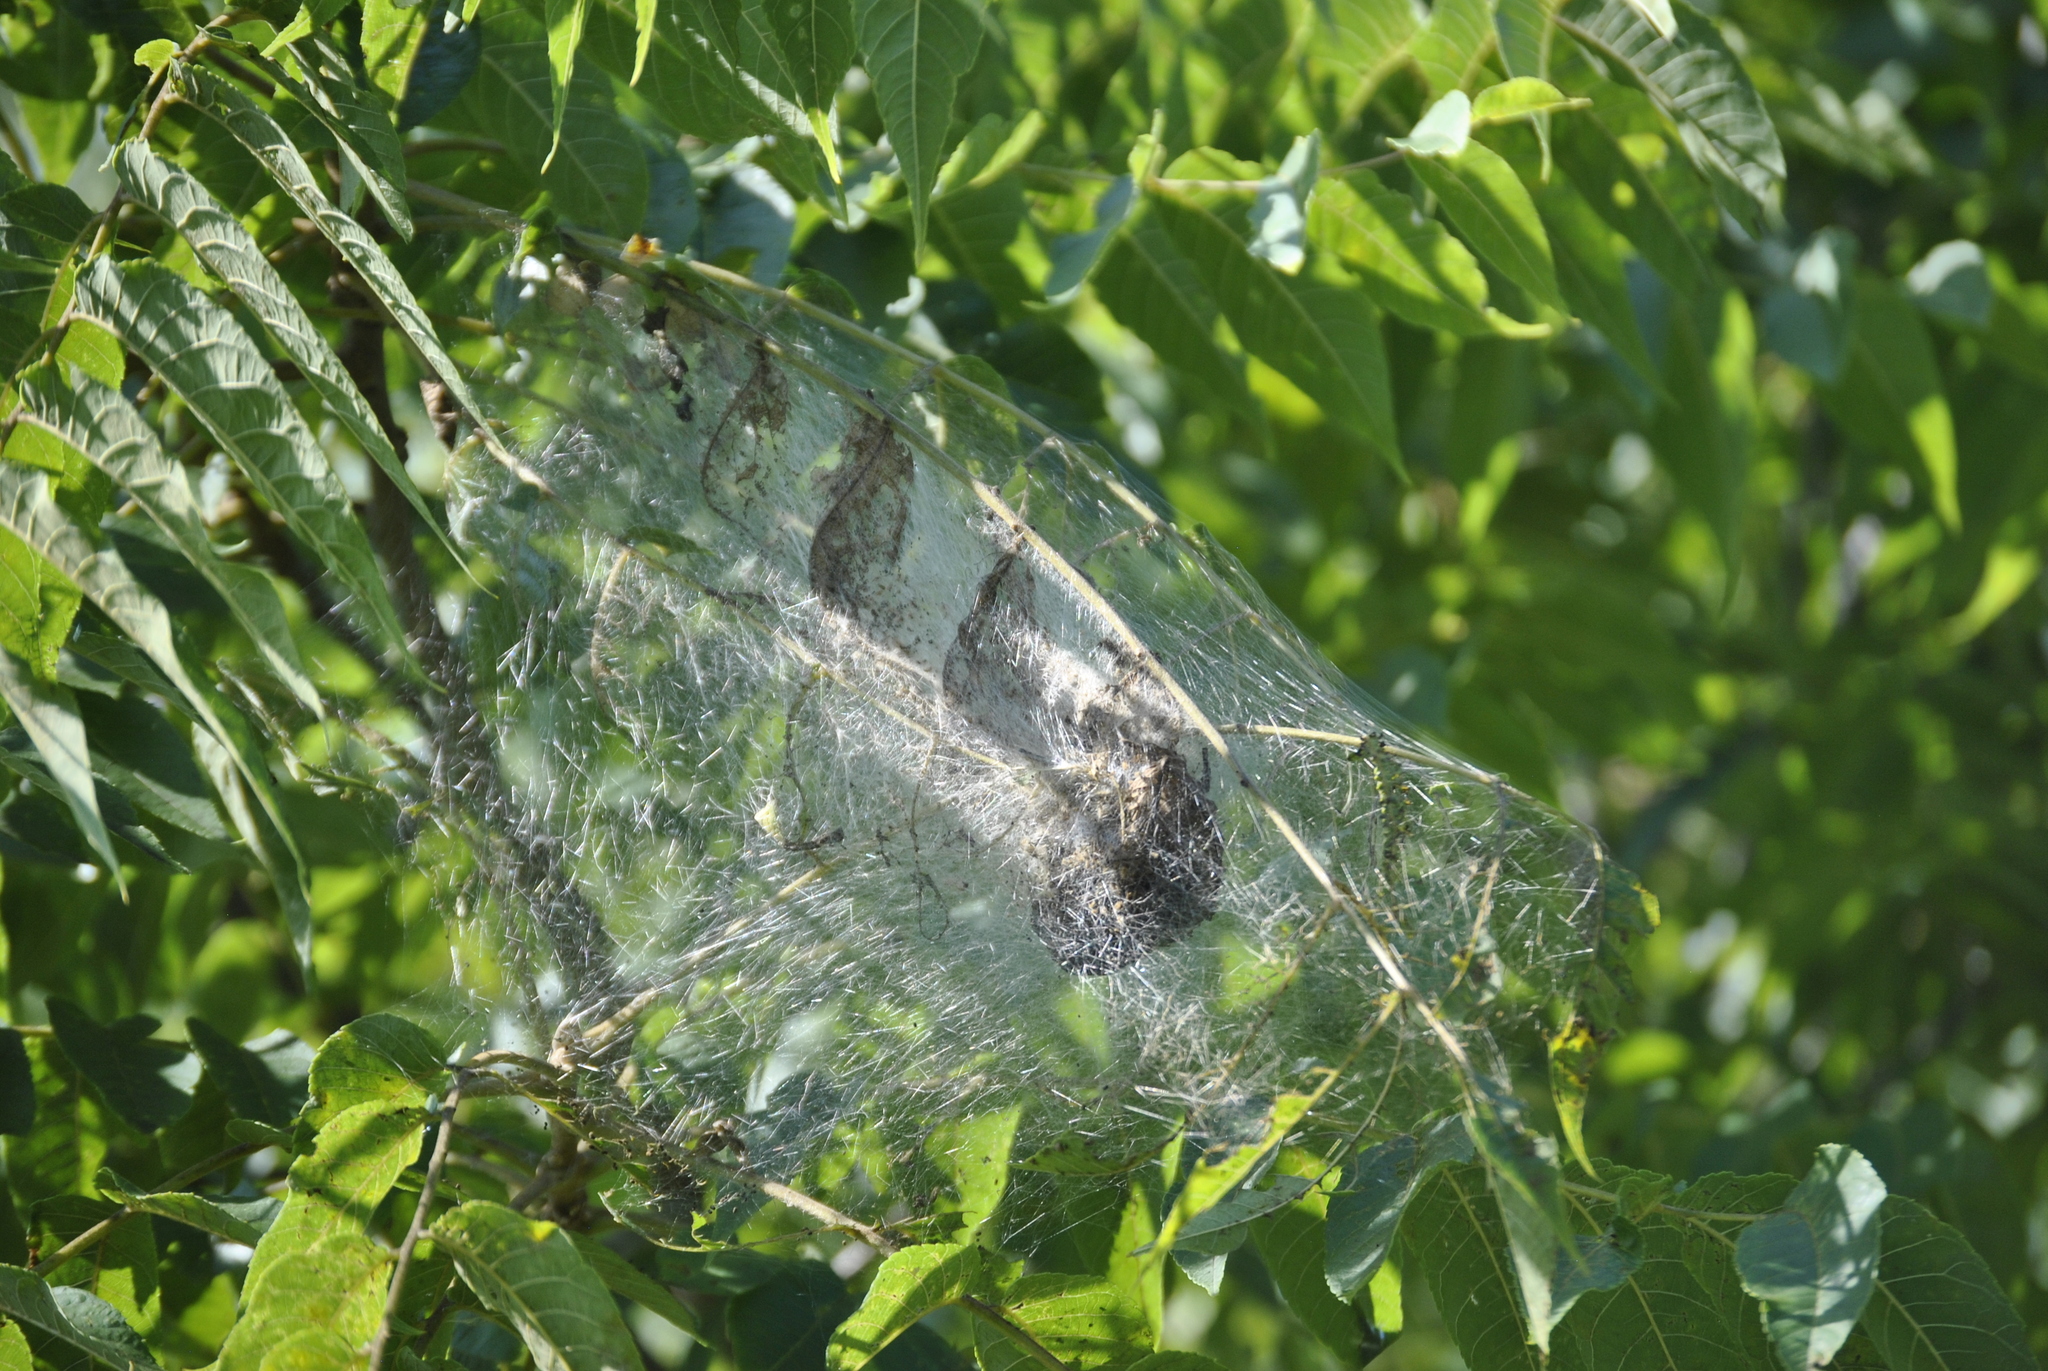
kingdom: Animalia
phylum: Arthropoda
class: Insecta
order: Lepidoptera
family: Erebidae
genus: Hyphantria
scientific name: Hyphantria cunea
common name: American white moth
